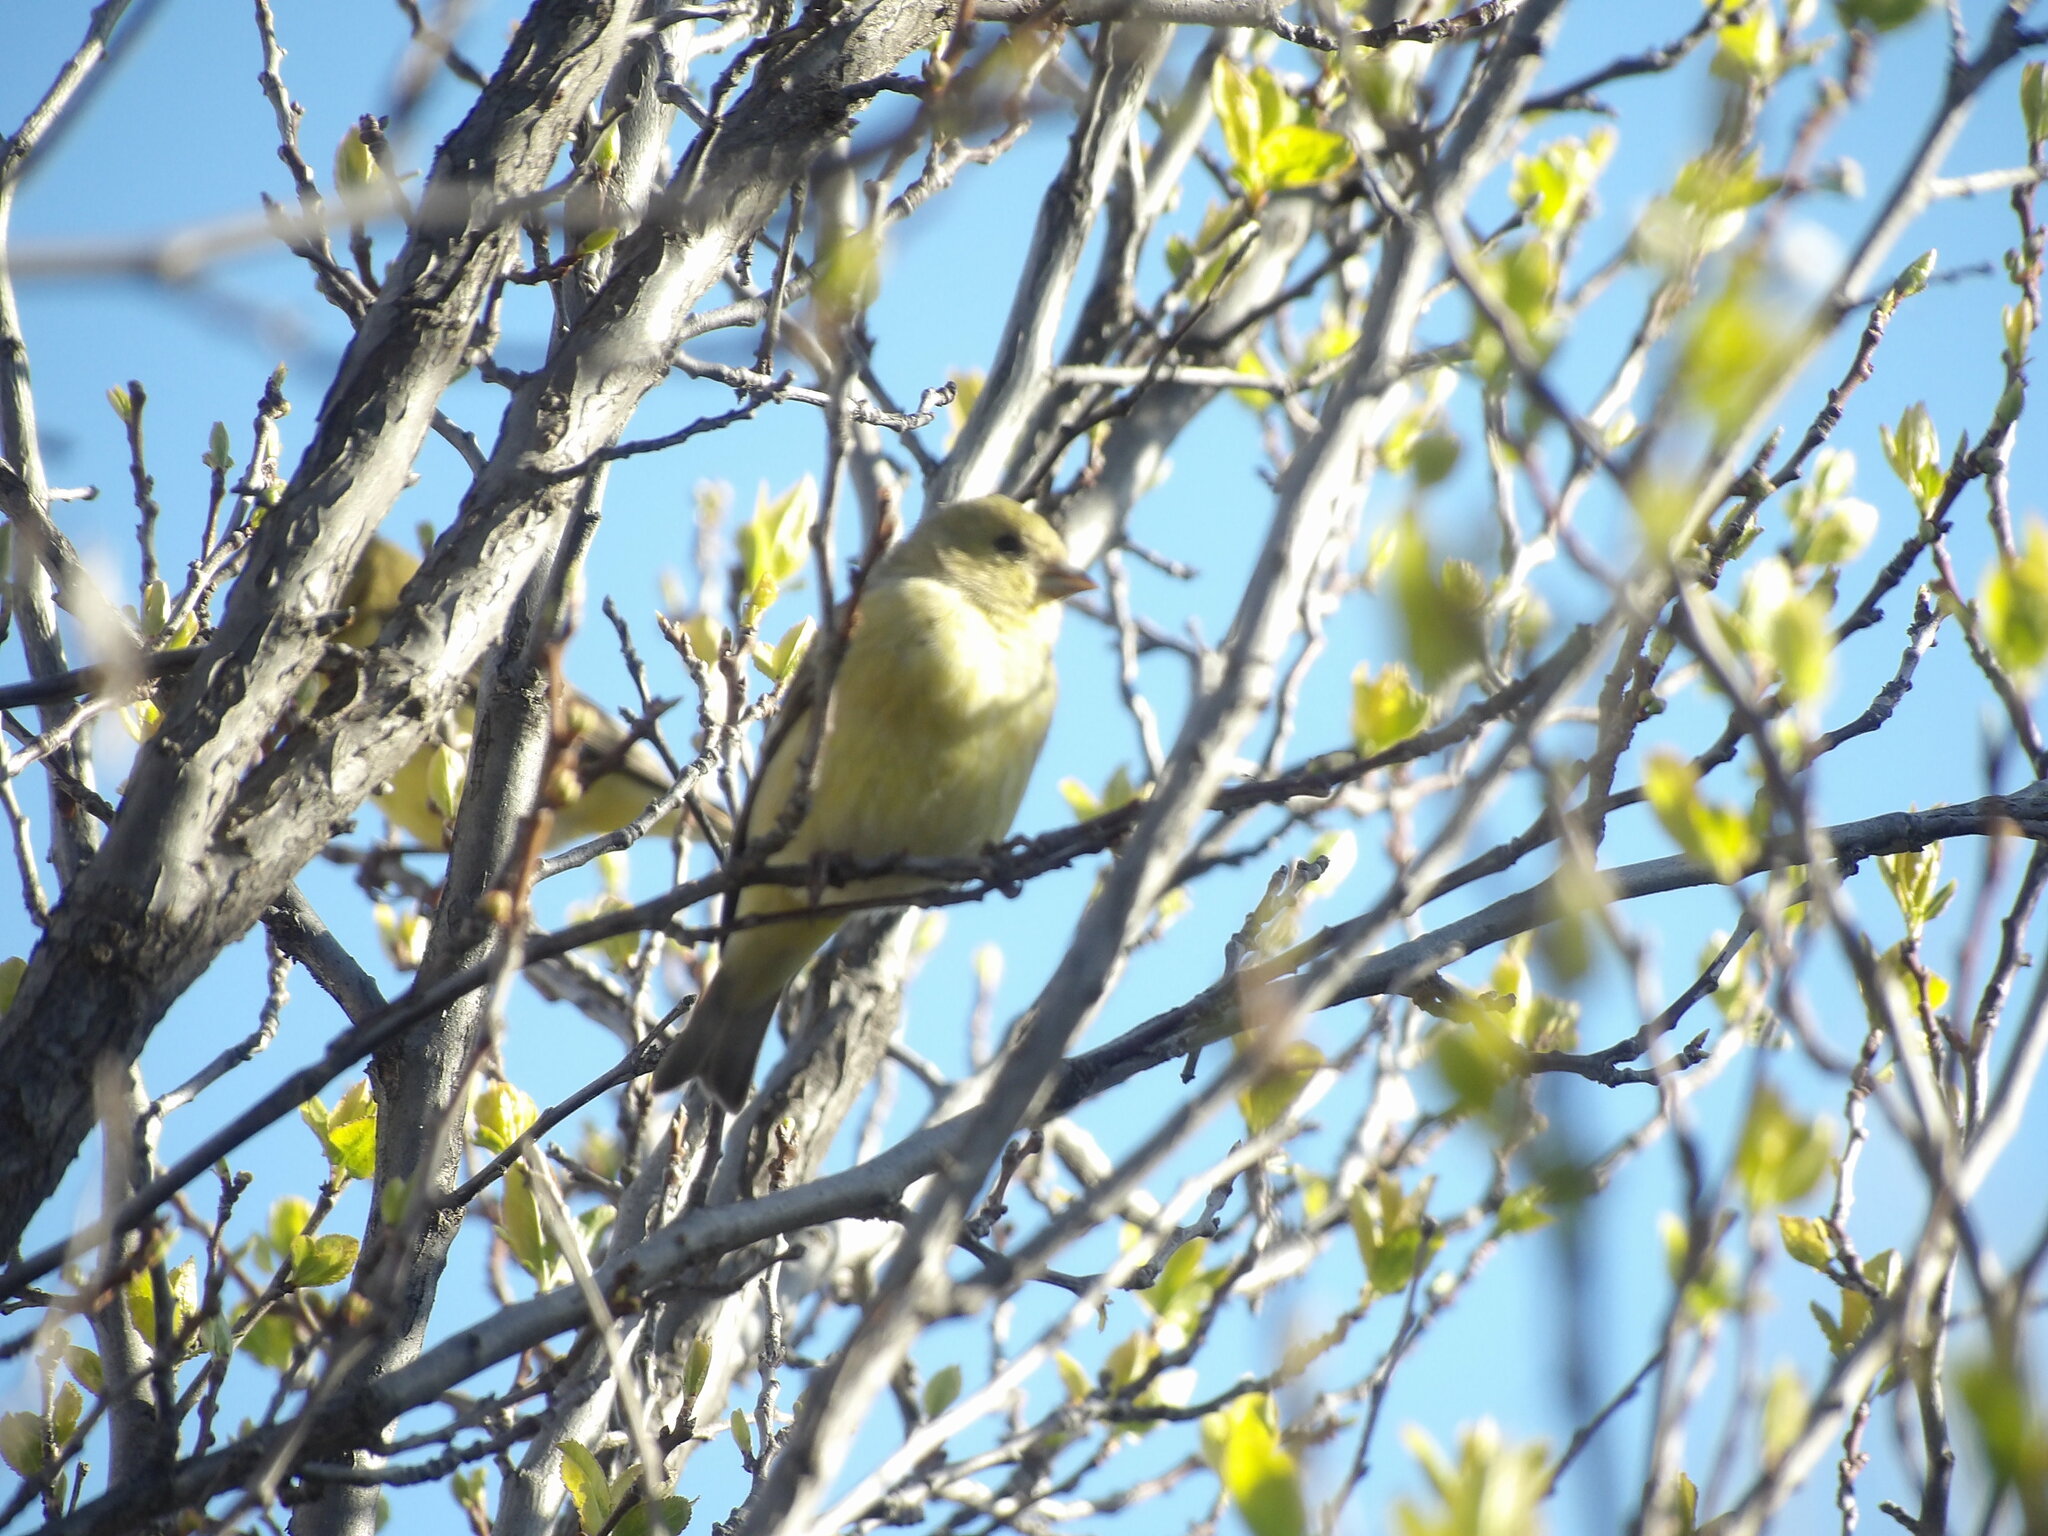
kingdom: Animalia
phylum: Chordata
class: Aves
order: Passeriformes
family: Fringillidae
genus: Spinus
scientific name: Spinus psaltria
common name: Lesser goldfinch
